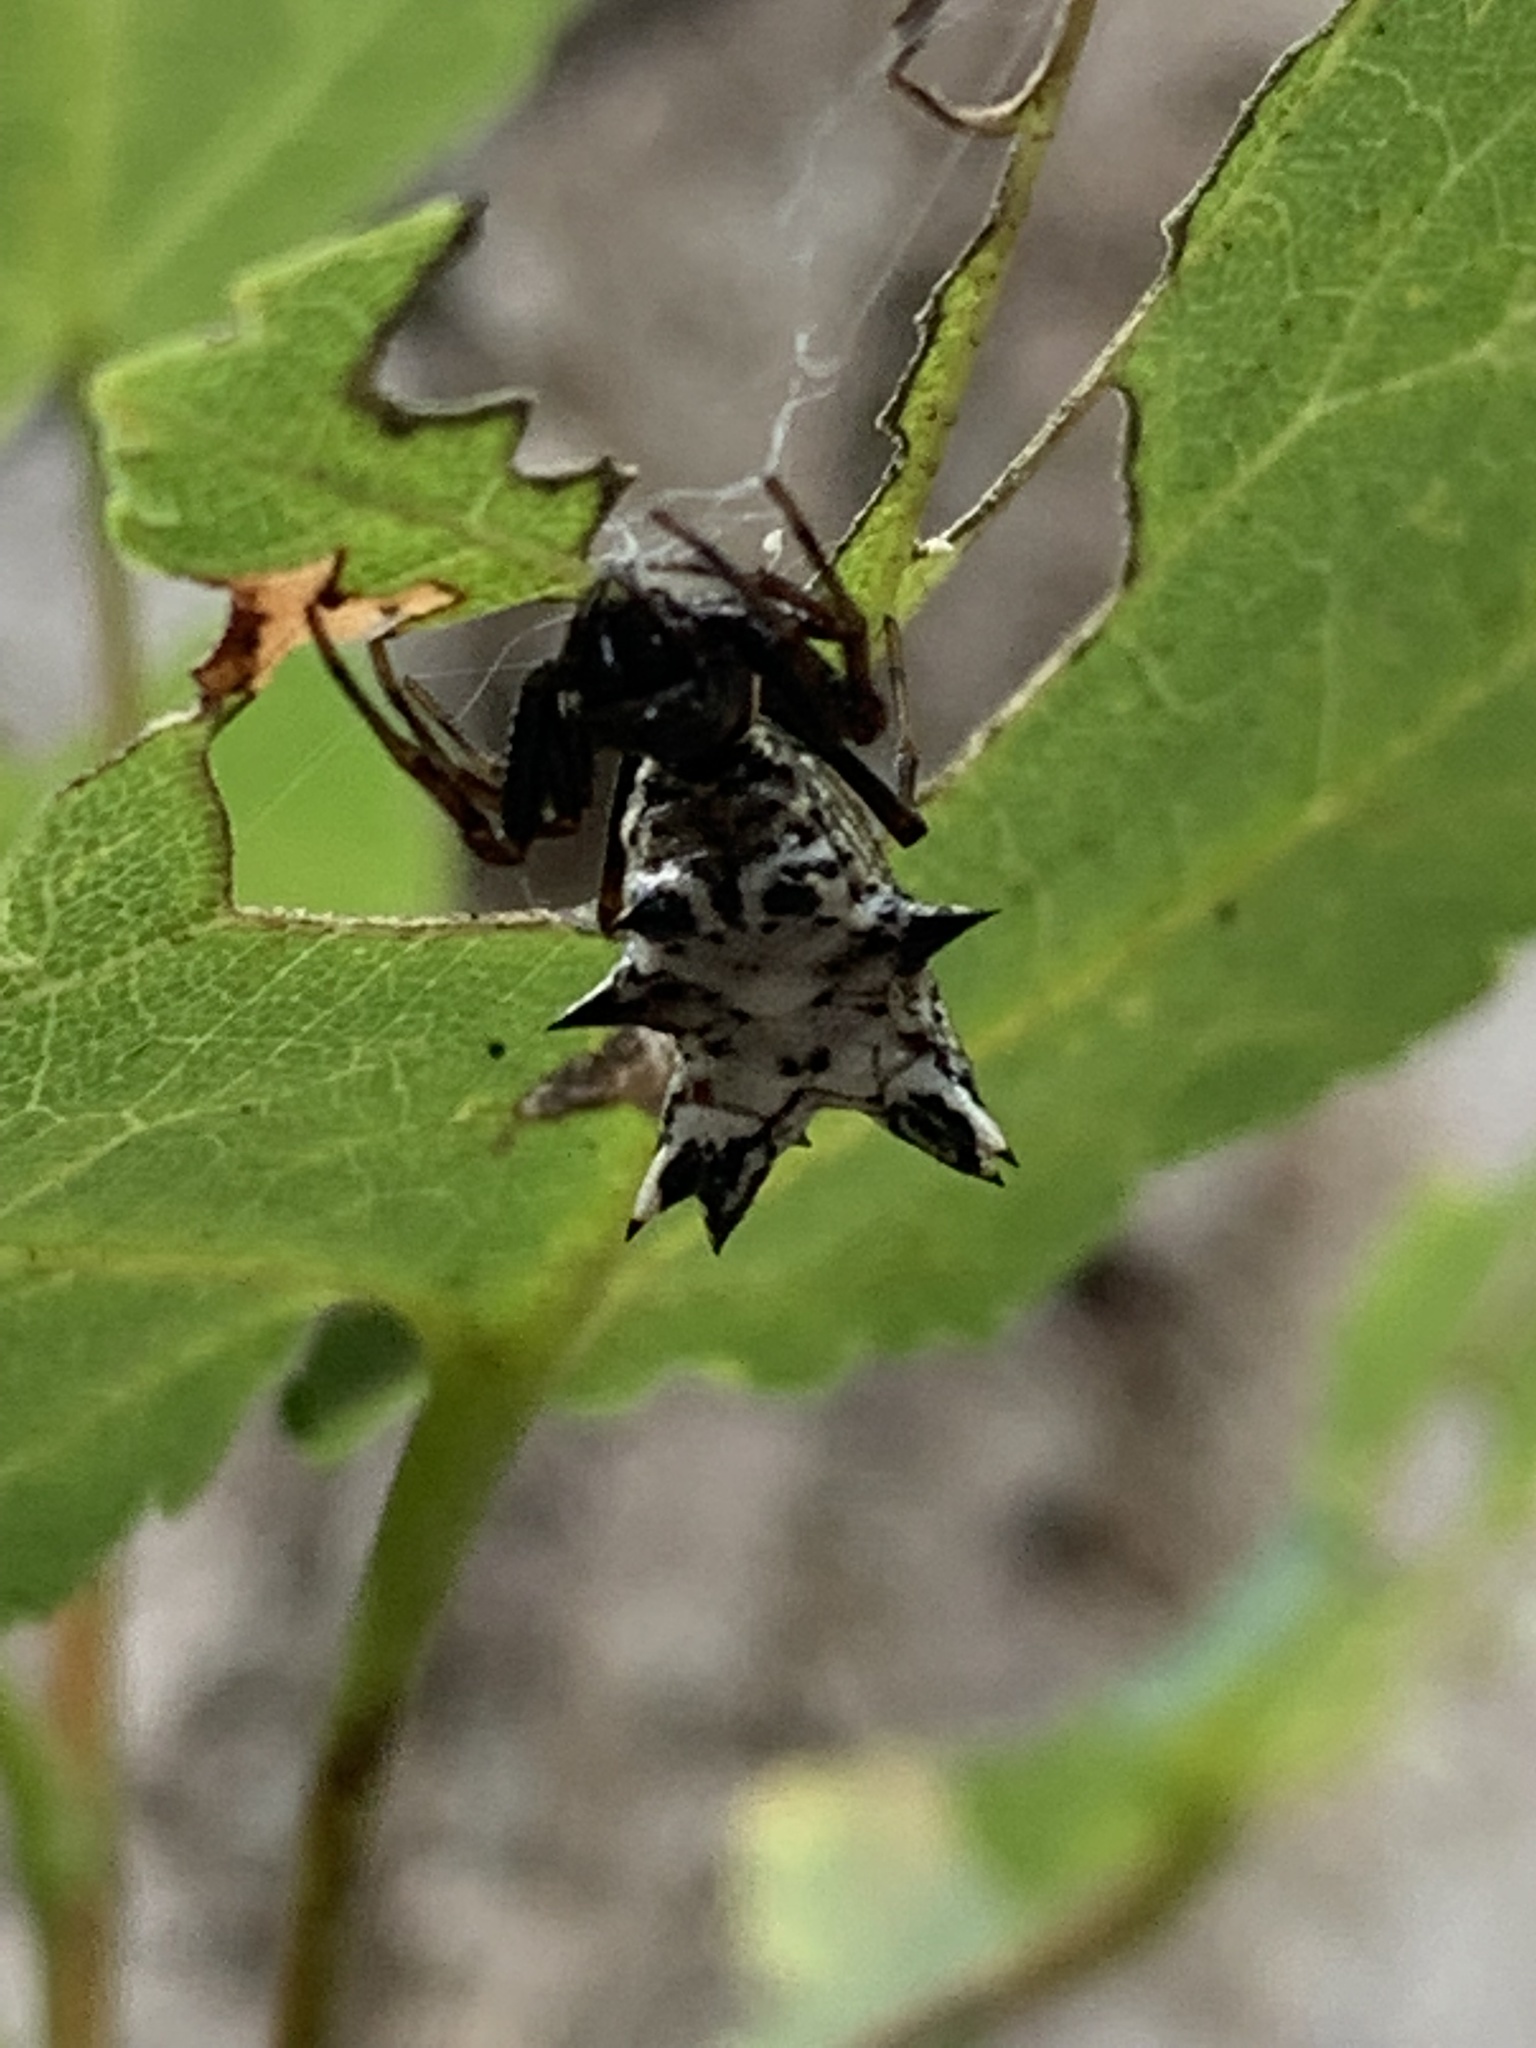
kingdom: Animalia
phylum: Arthropoda
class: Arachnida
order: Araneae
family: Araneidae
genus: Micrathena
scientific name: Micrathena gracilis
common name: Orb weavers
